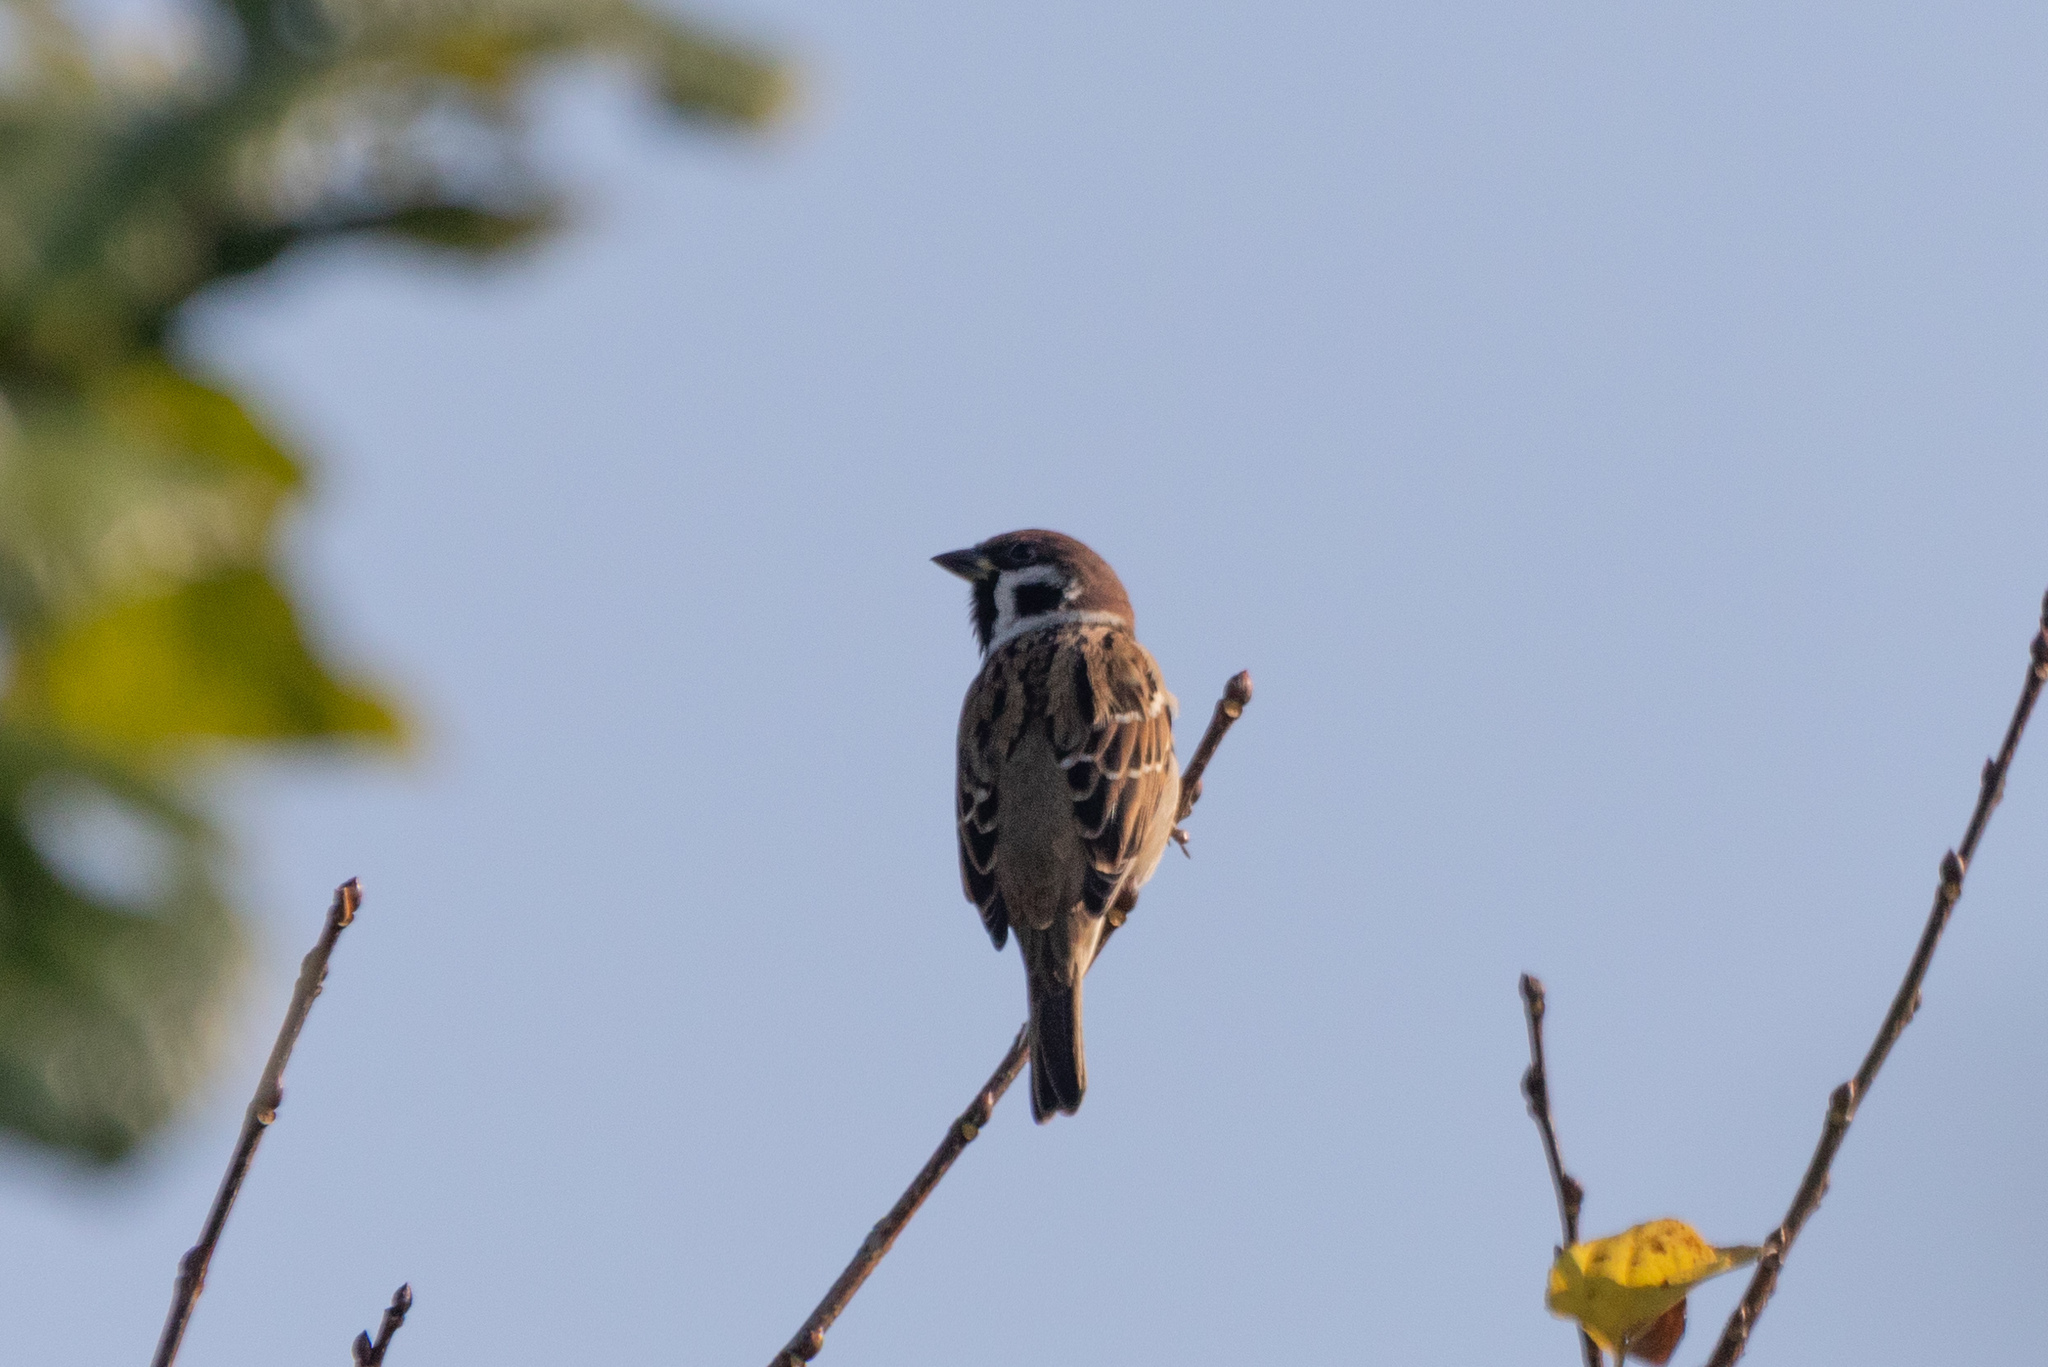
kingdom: Animalia
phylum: Chordata
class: Aves
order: Passeriformes
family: Passeridae
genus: Passer
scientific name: Passer montanus
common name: Eurasian tree sparrow
